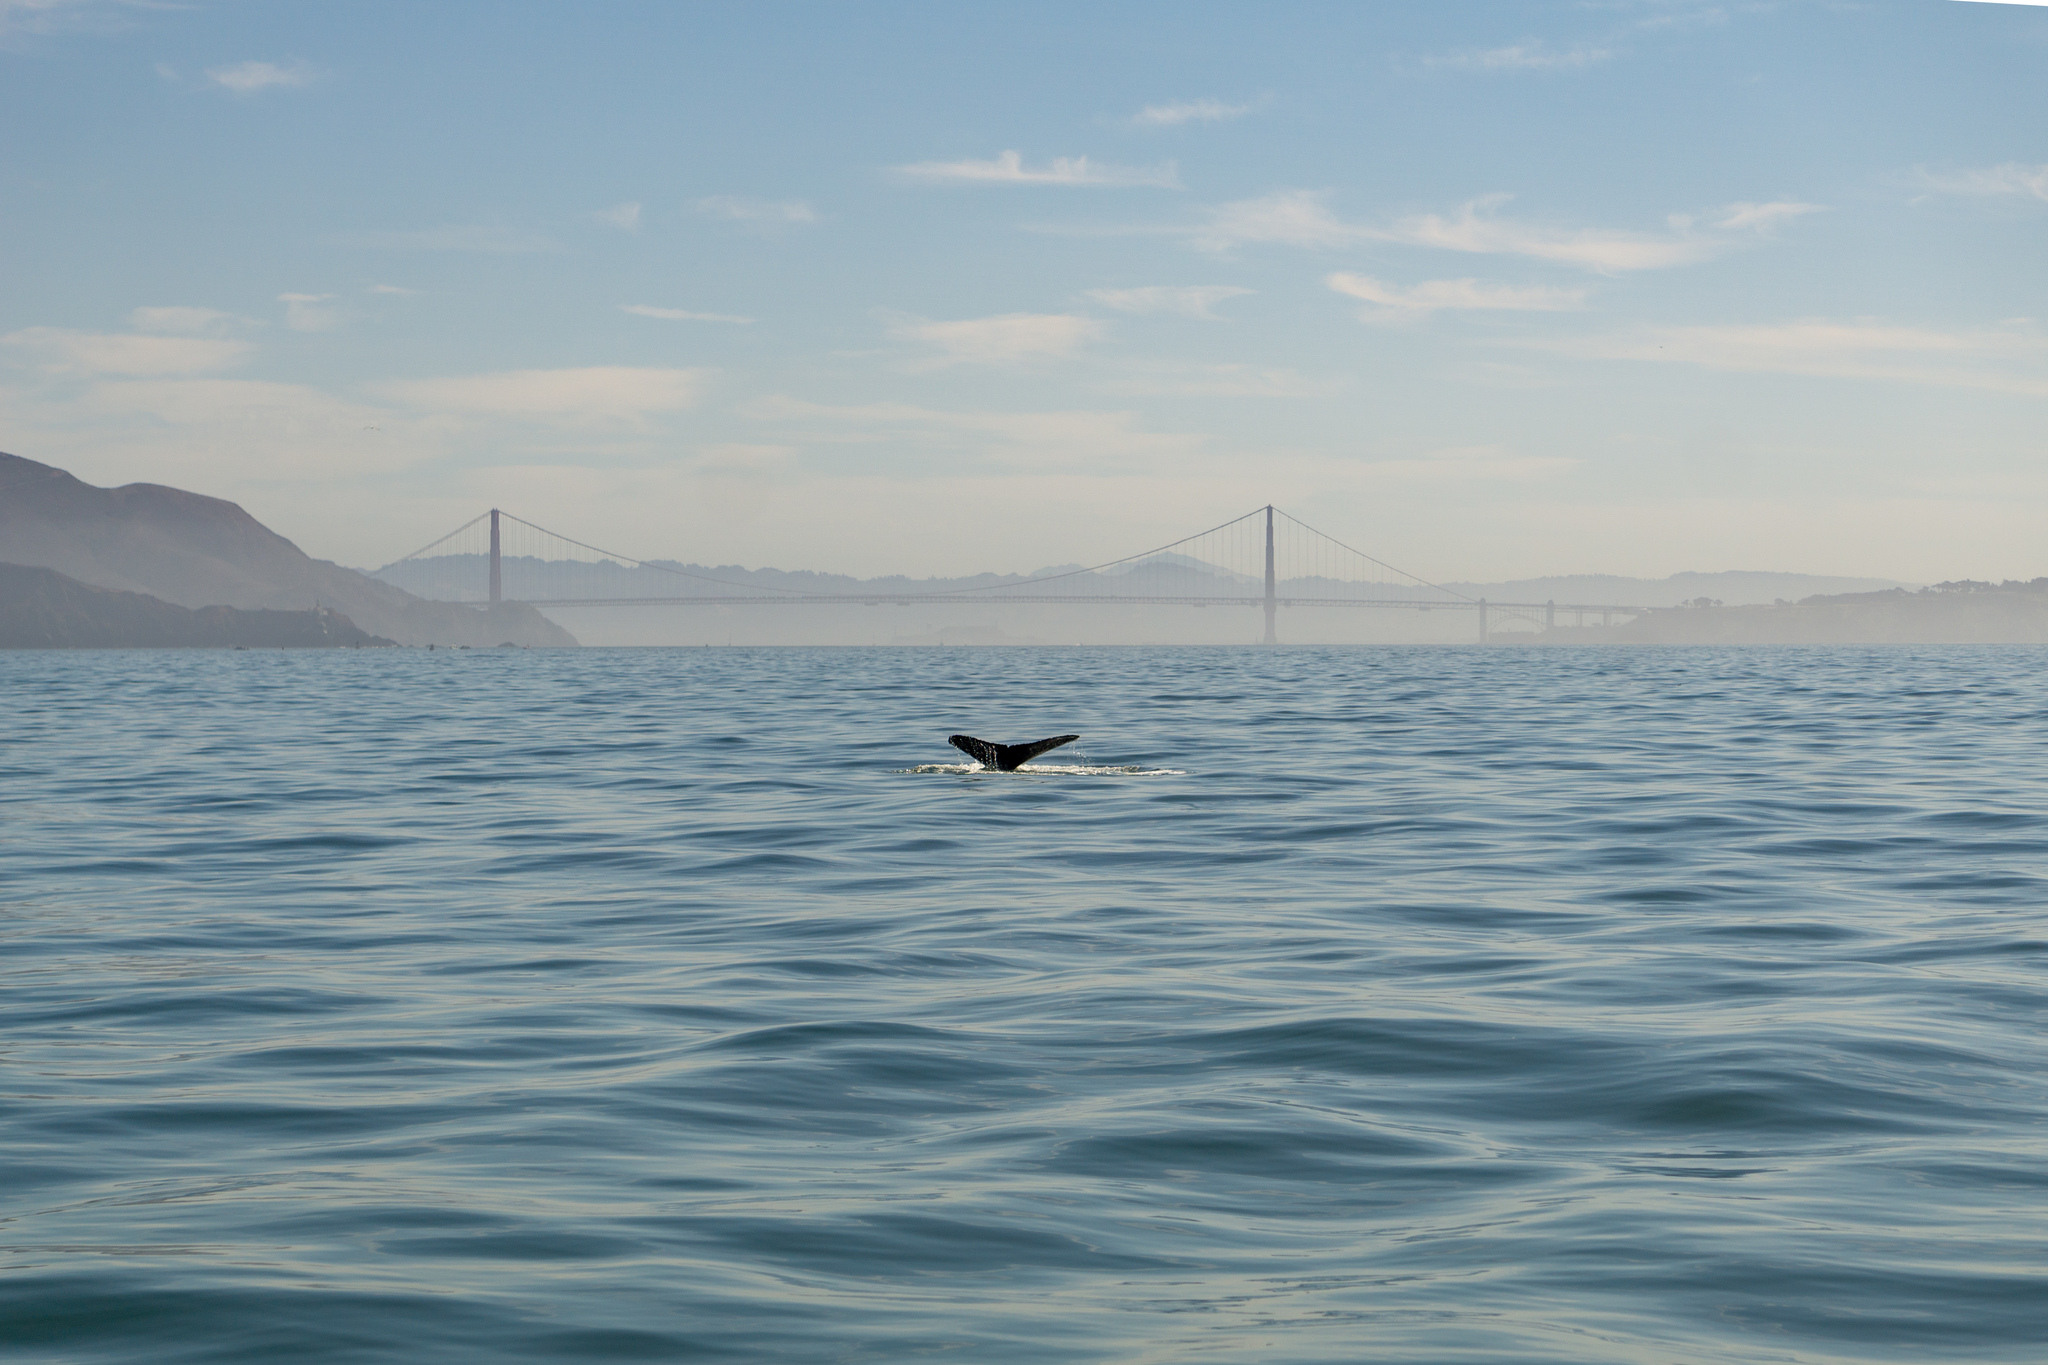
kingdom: Animalia
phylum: Chordata
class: Mammalia
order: Cetacea
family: Balaenopteridae
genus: Megaptera
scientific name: Megaptera novaeangliae
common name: Humpback whale
